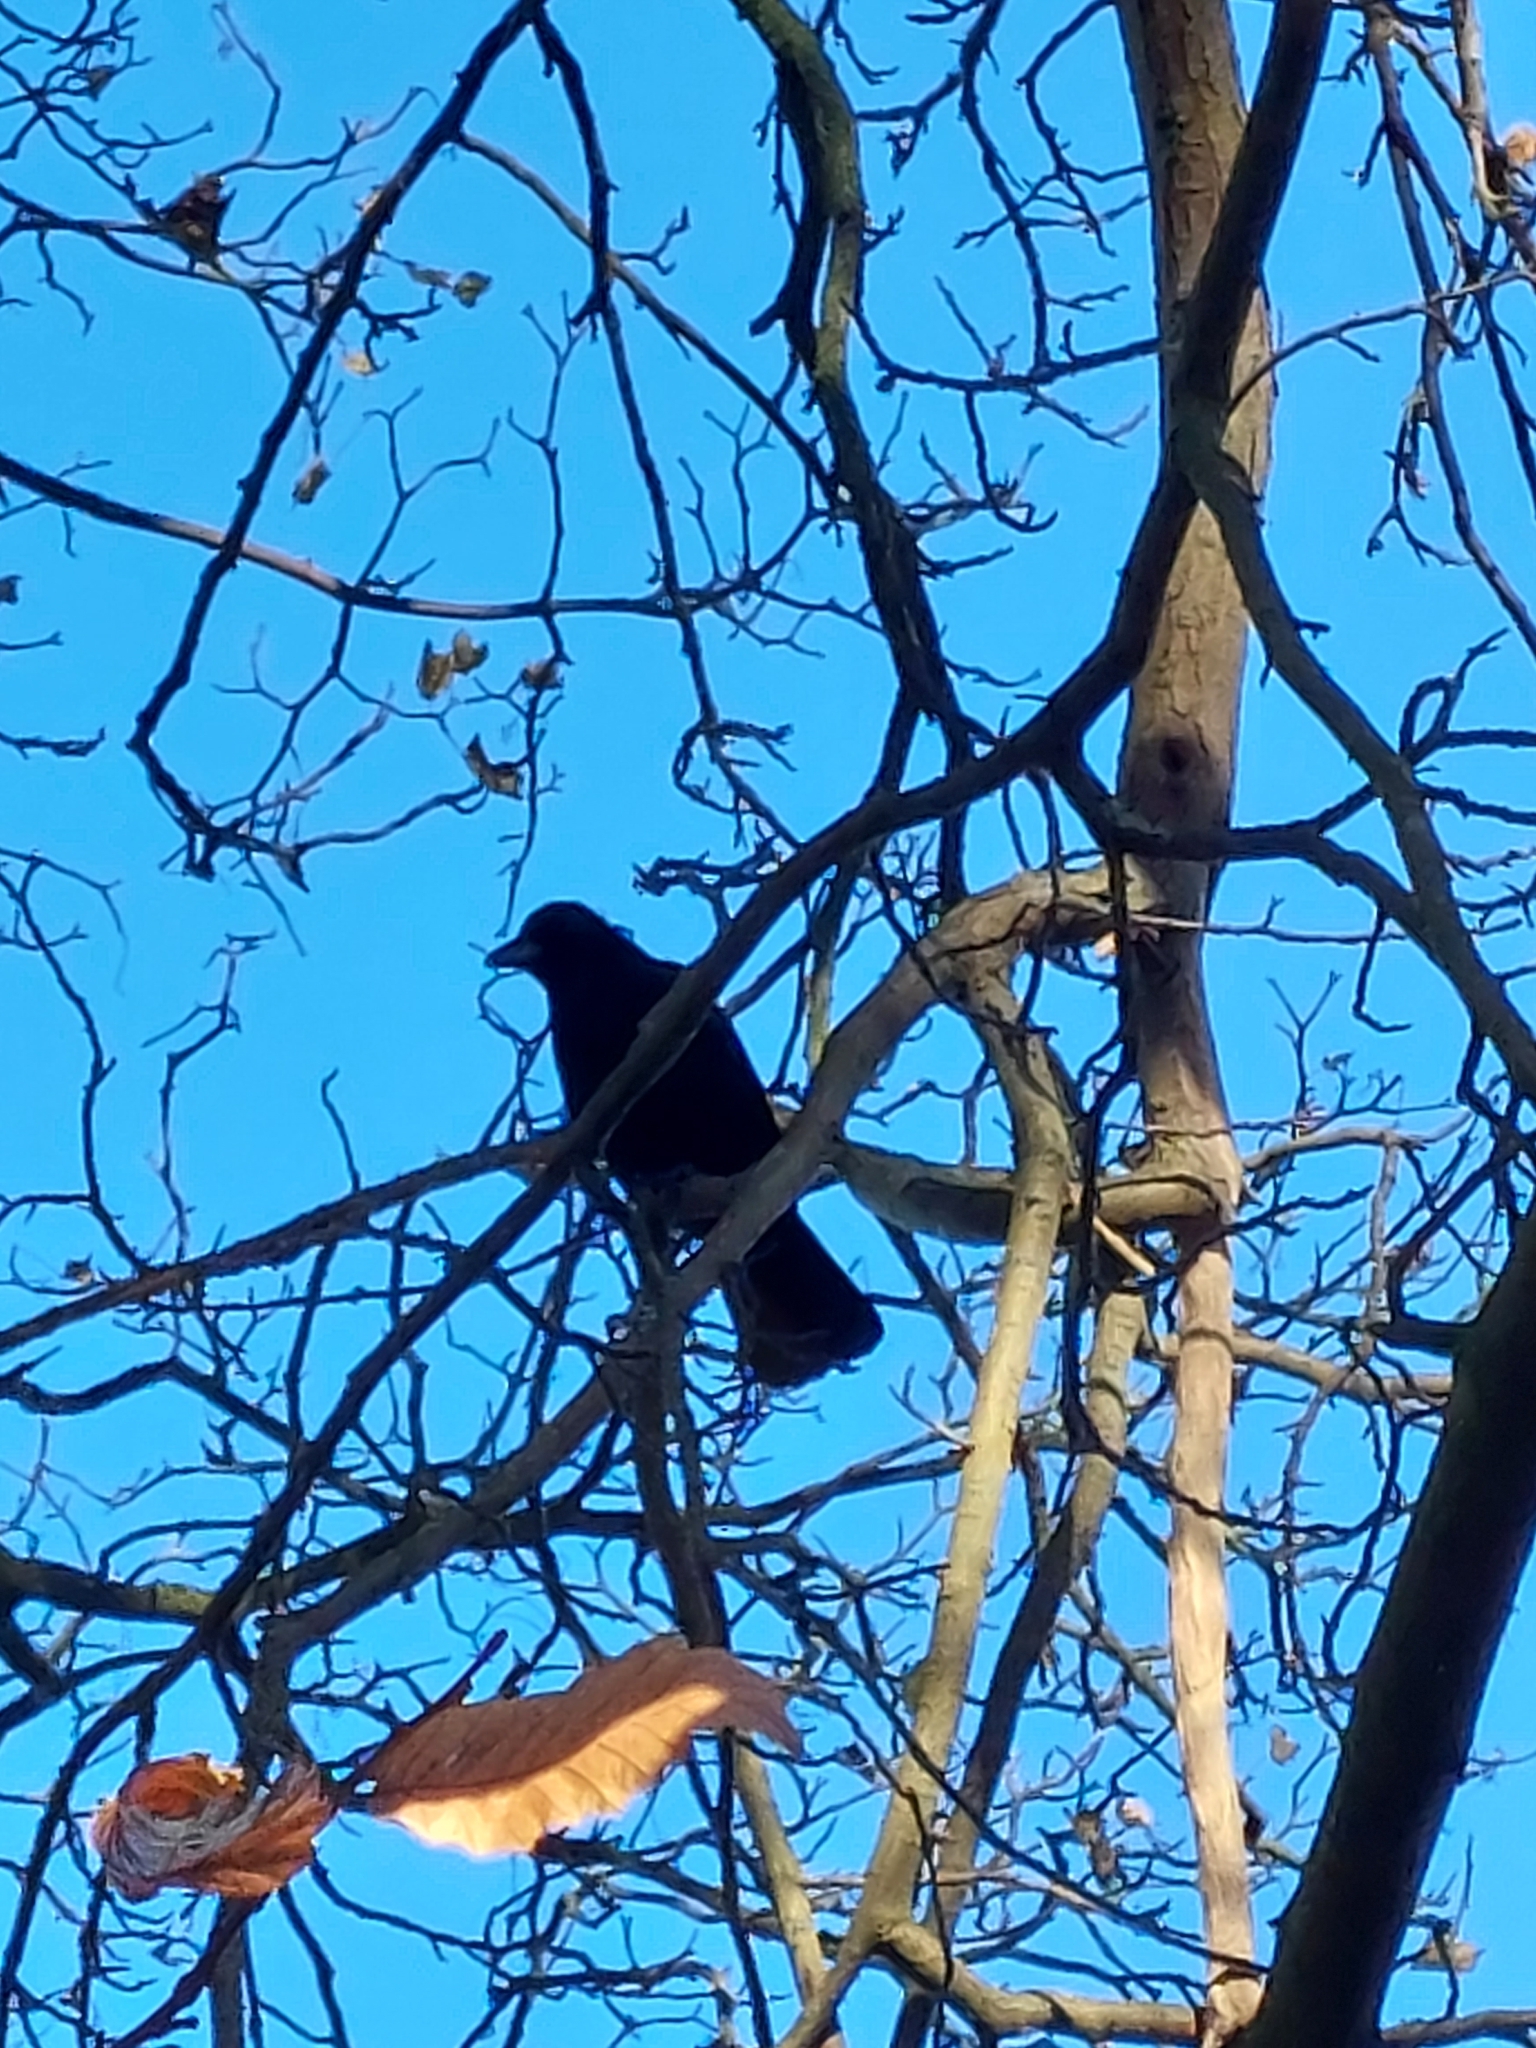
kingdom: Animalia
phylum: Chordata
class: Aves
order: Passeriformes
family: Corvidae
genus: Corvus
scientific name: Corvus corone
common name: Carrion crow
